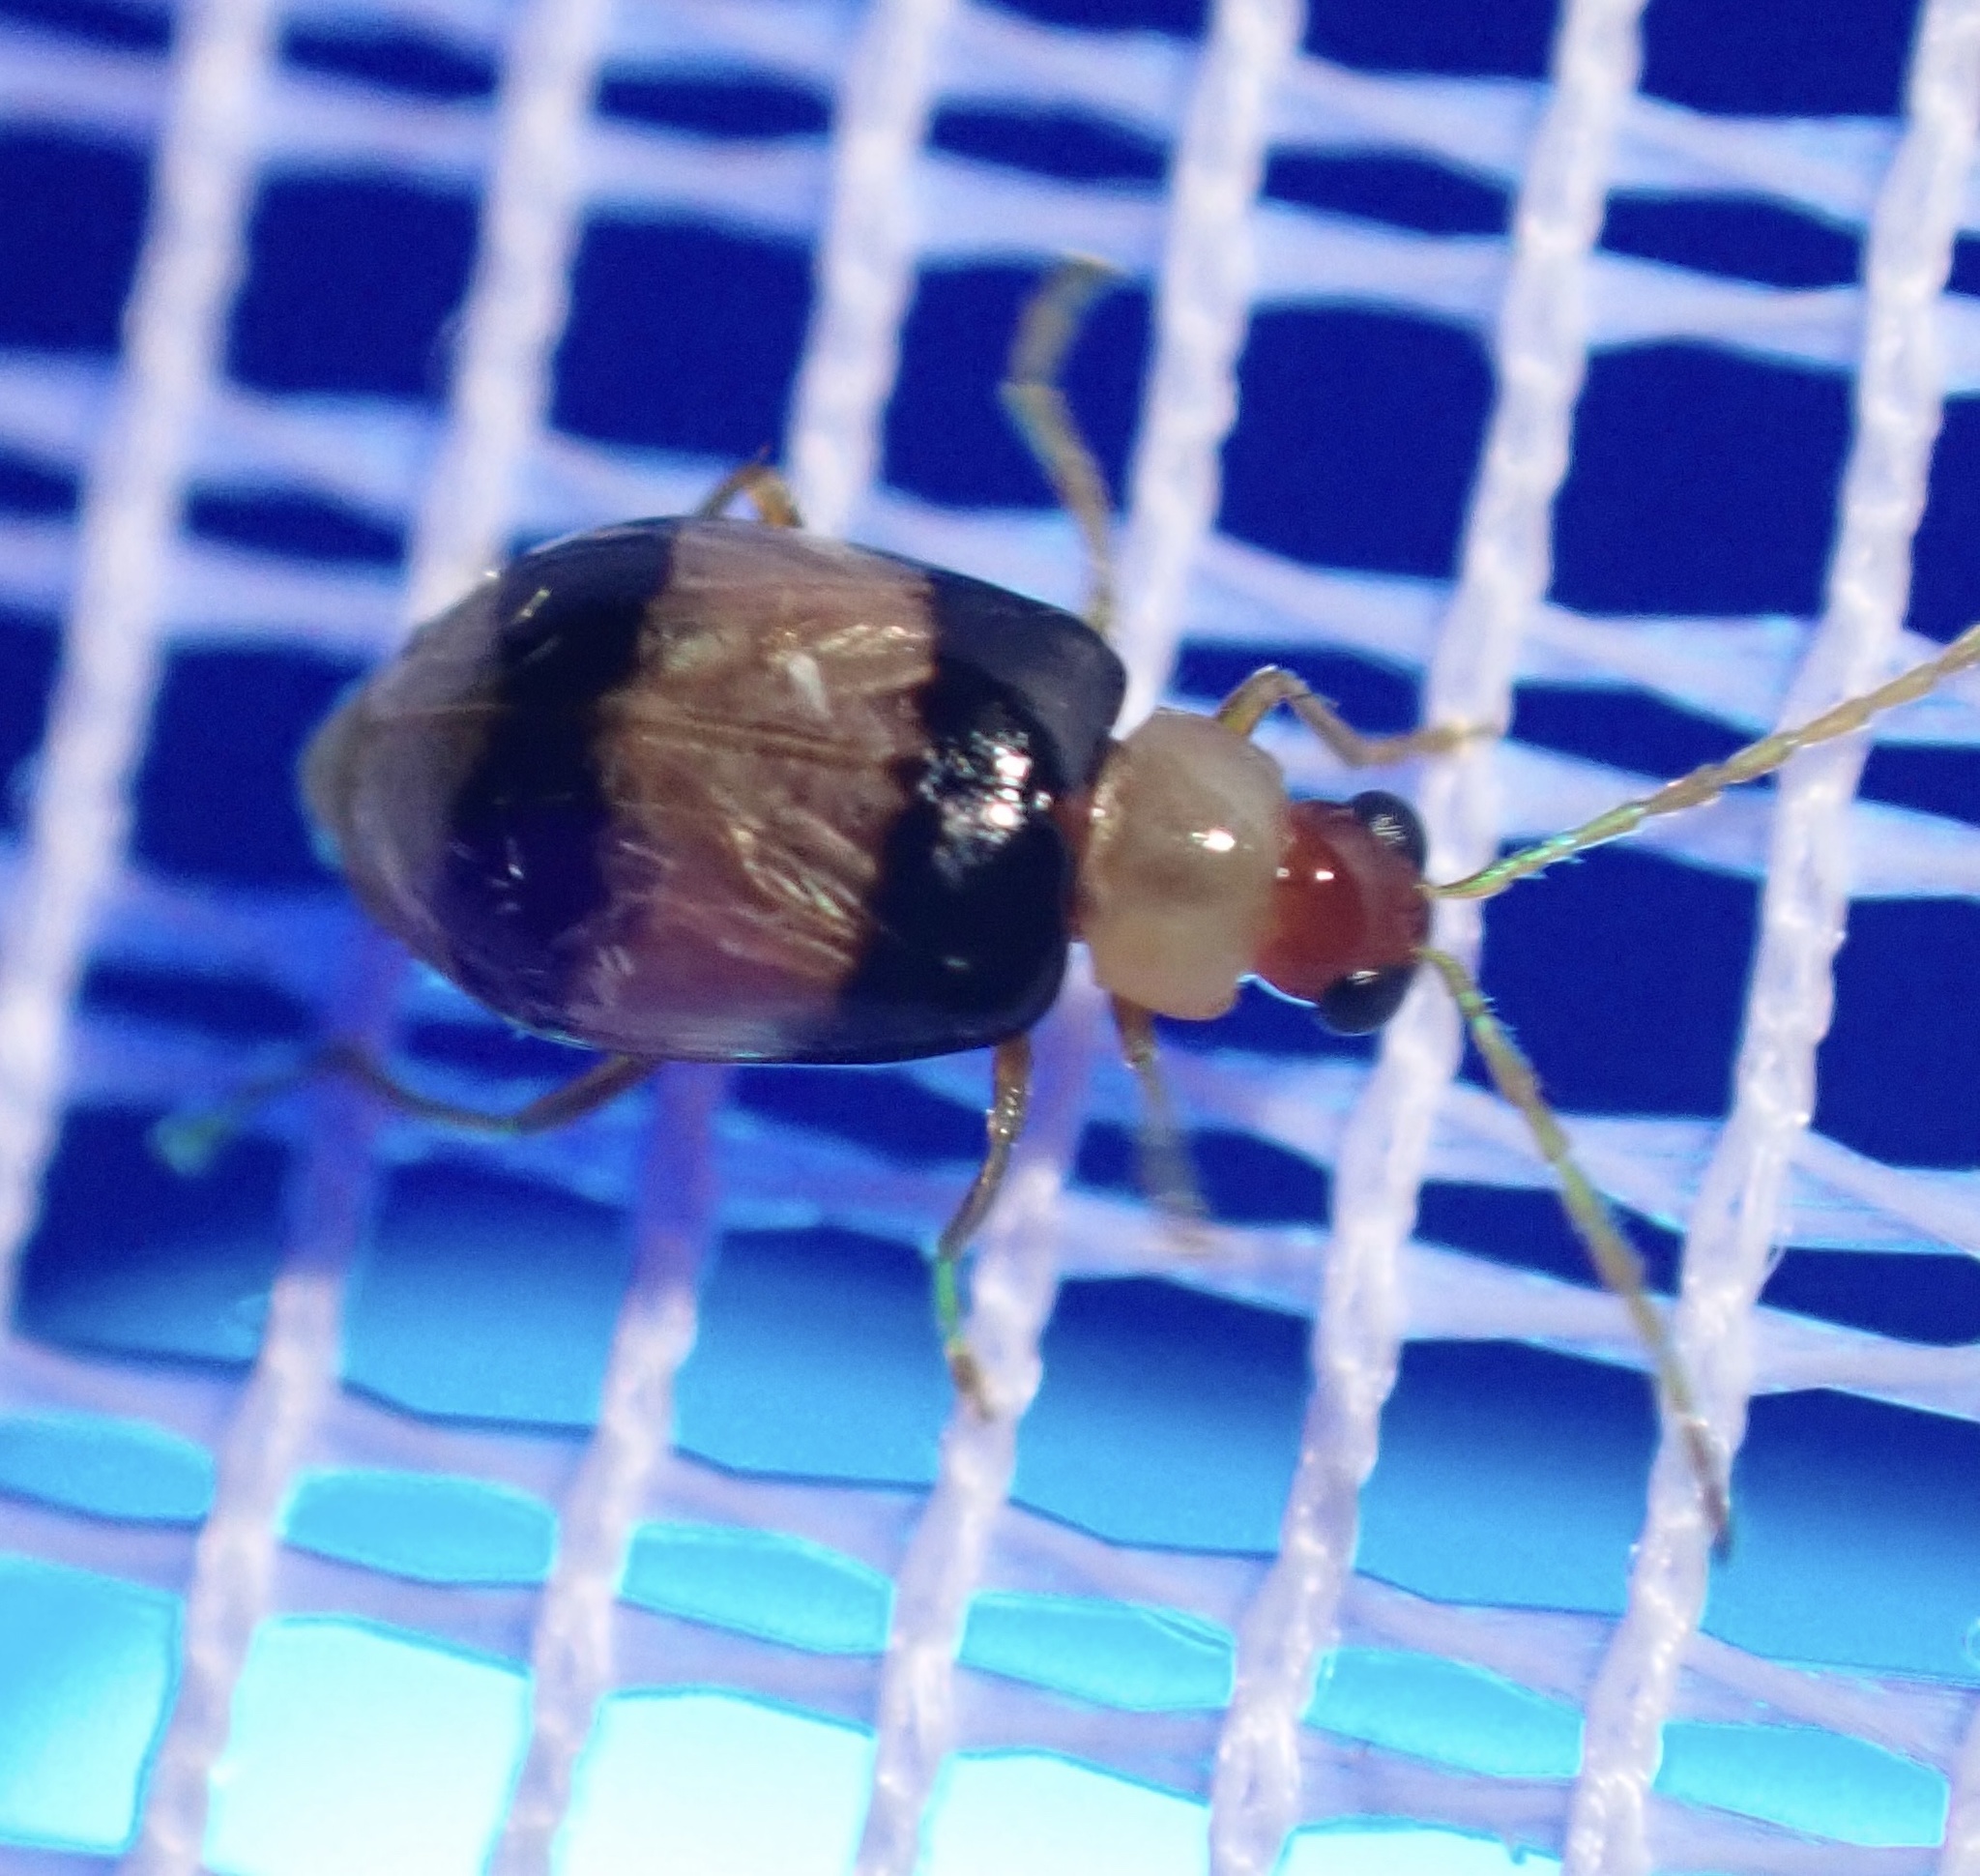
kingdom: Animalia
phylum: Arthropoda
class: Insecta
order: Coleoptera
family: Chrysomelidae
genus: Monolepta
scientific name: Monolepta
